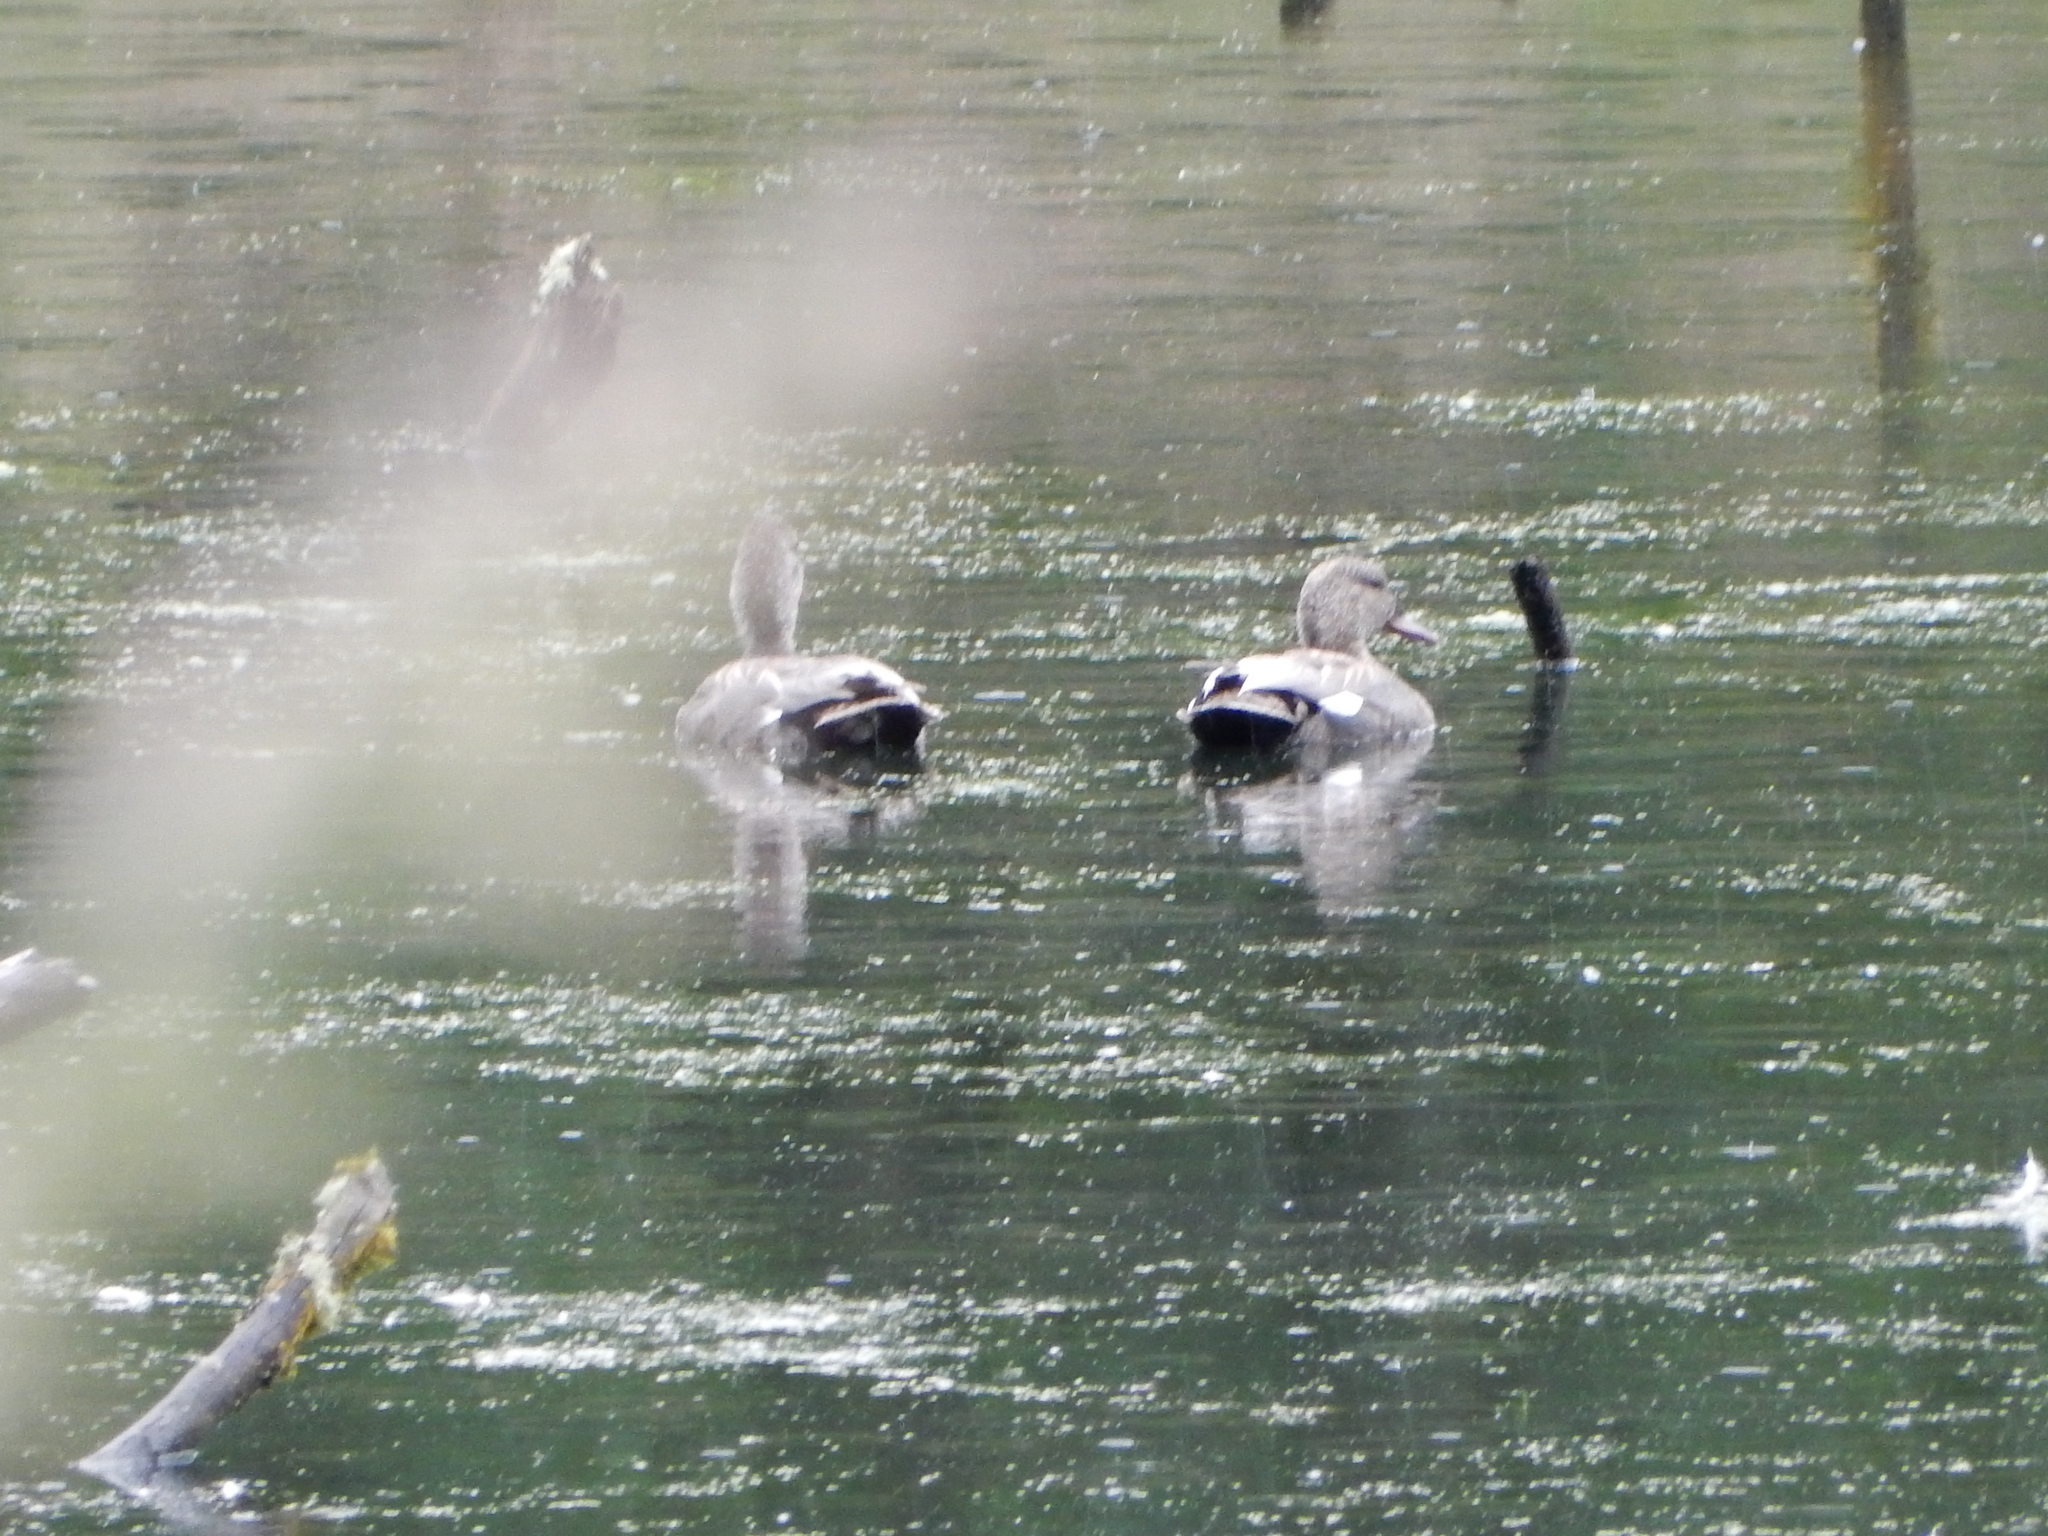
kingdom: Animalia
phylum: Chordata
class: Aves
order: Anseriformes
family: Anatidae
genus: Mareca
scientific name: Mareca strepera
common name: Gadwall
